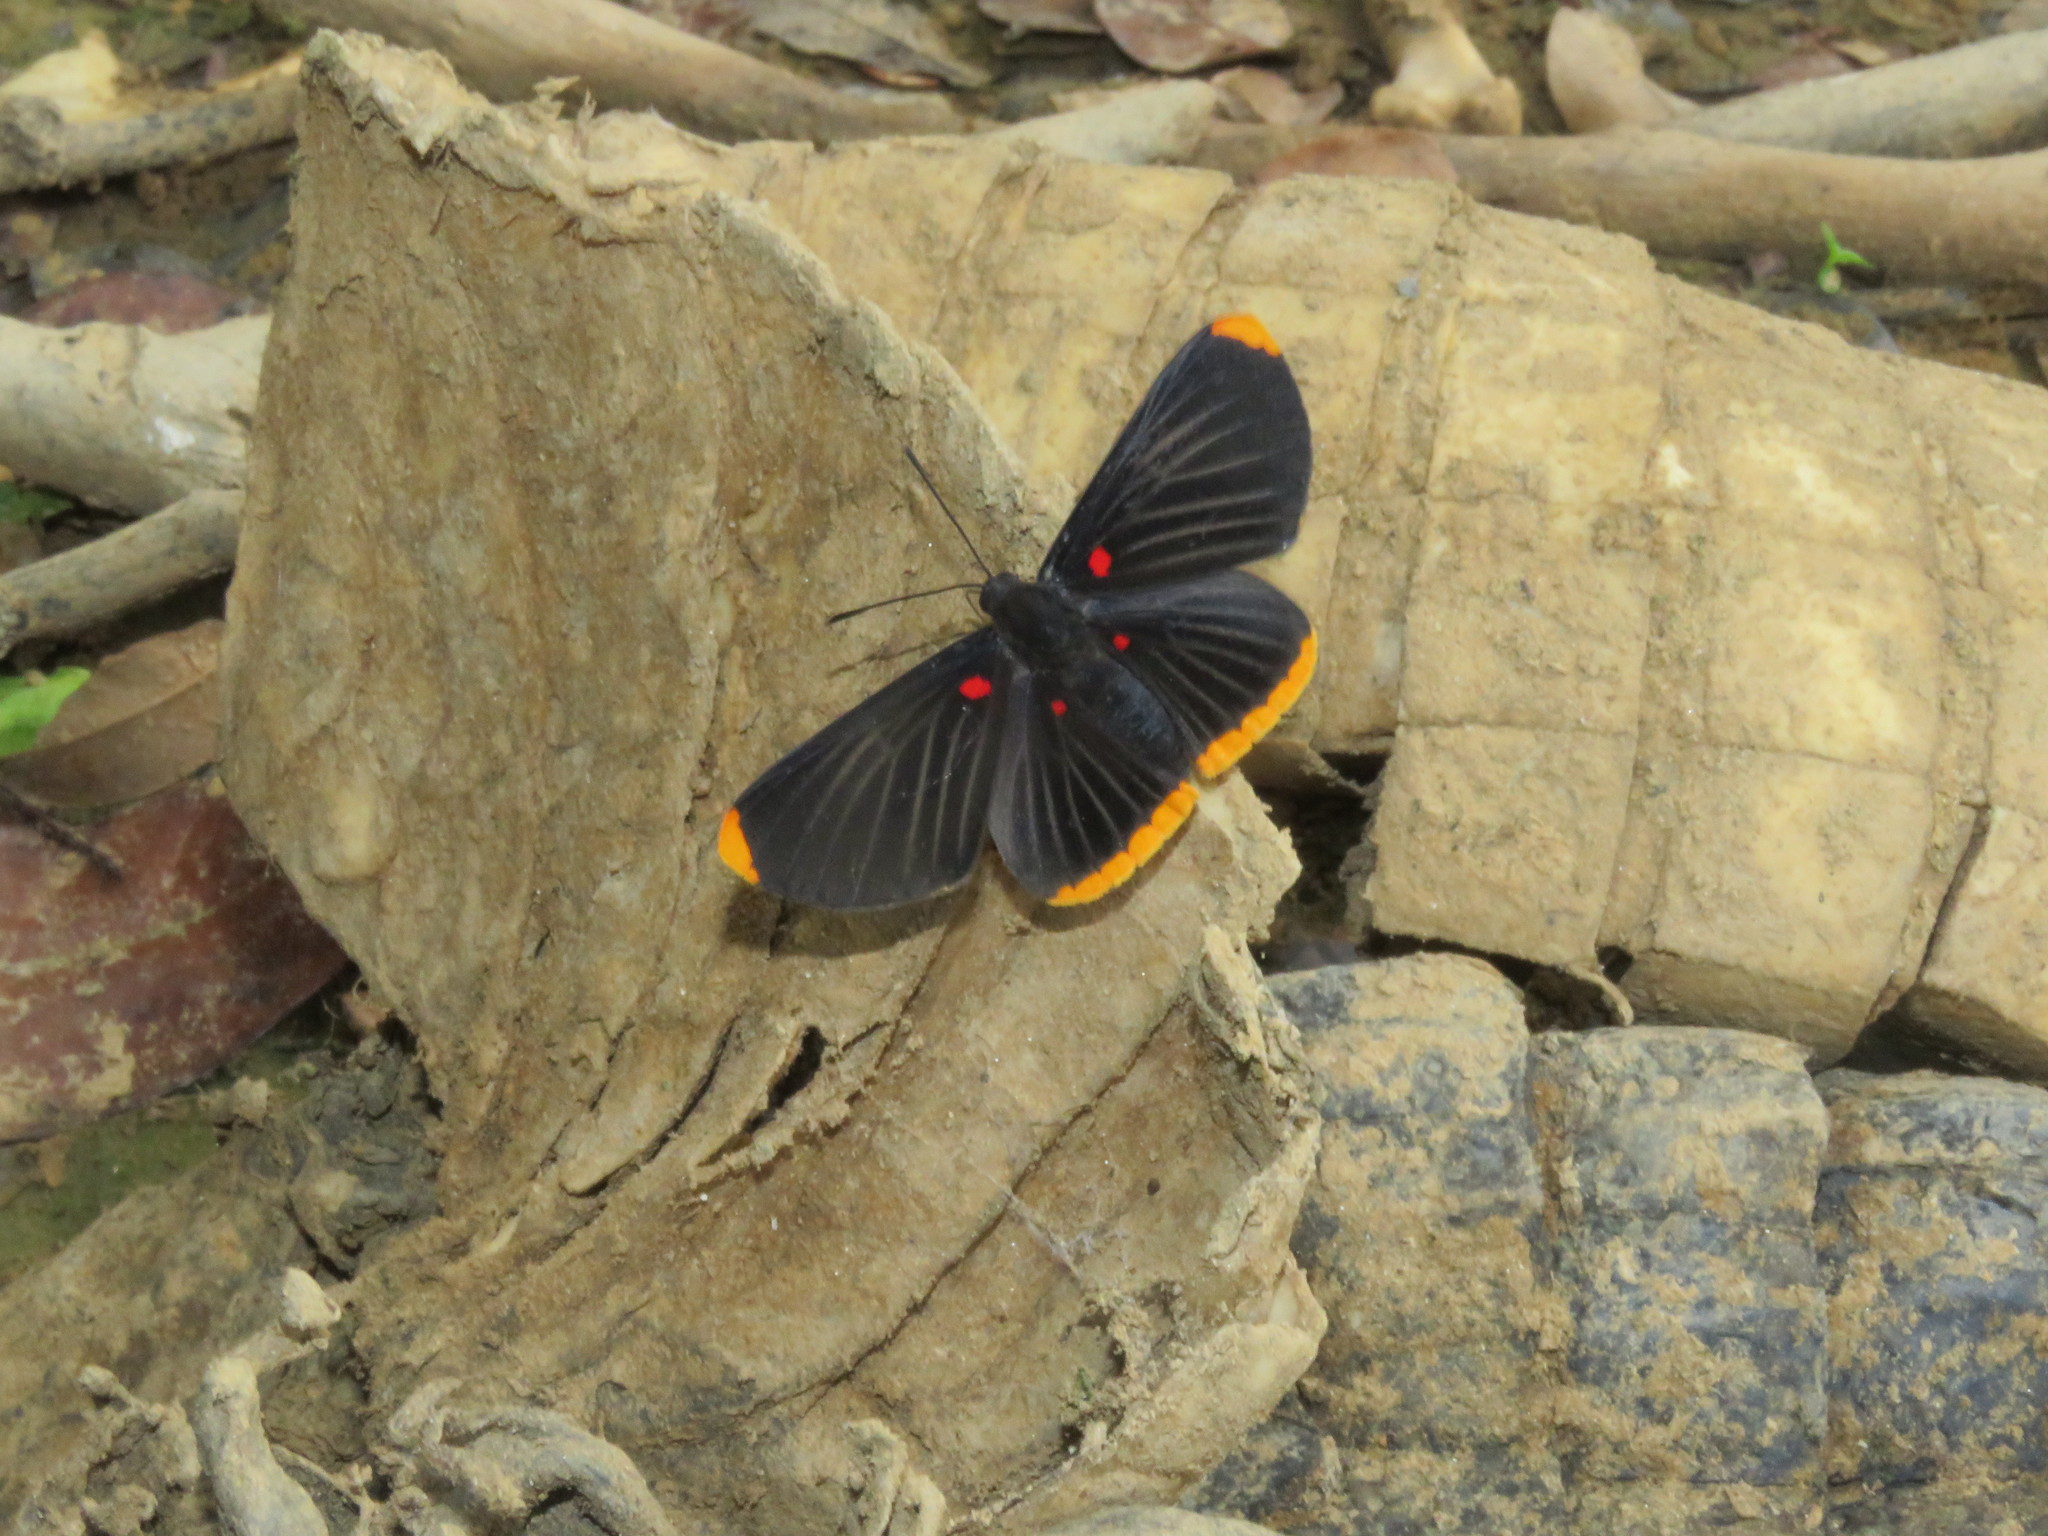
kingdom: Animalia
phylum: Arthropoda
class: Insecta
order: Lepidoptera
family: Lycaenidae
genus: Melanis
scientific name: Melanis smithiae
